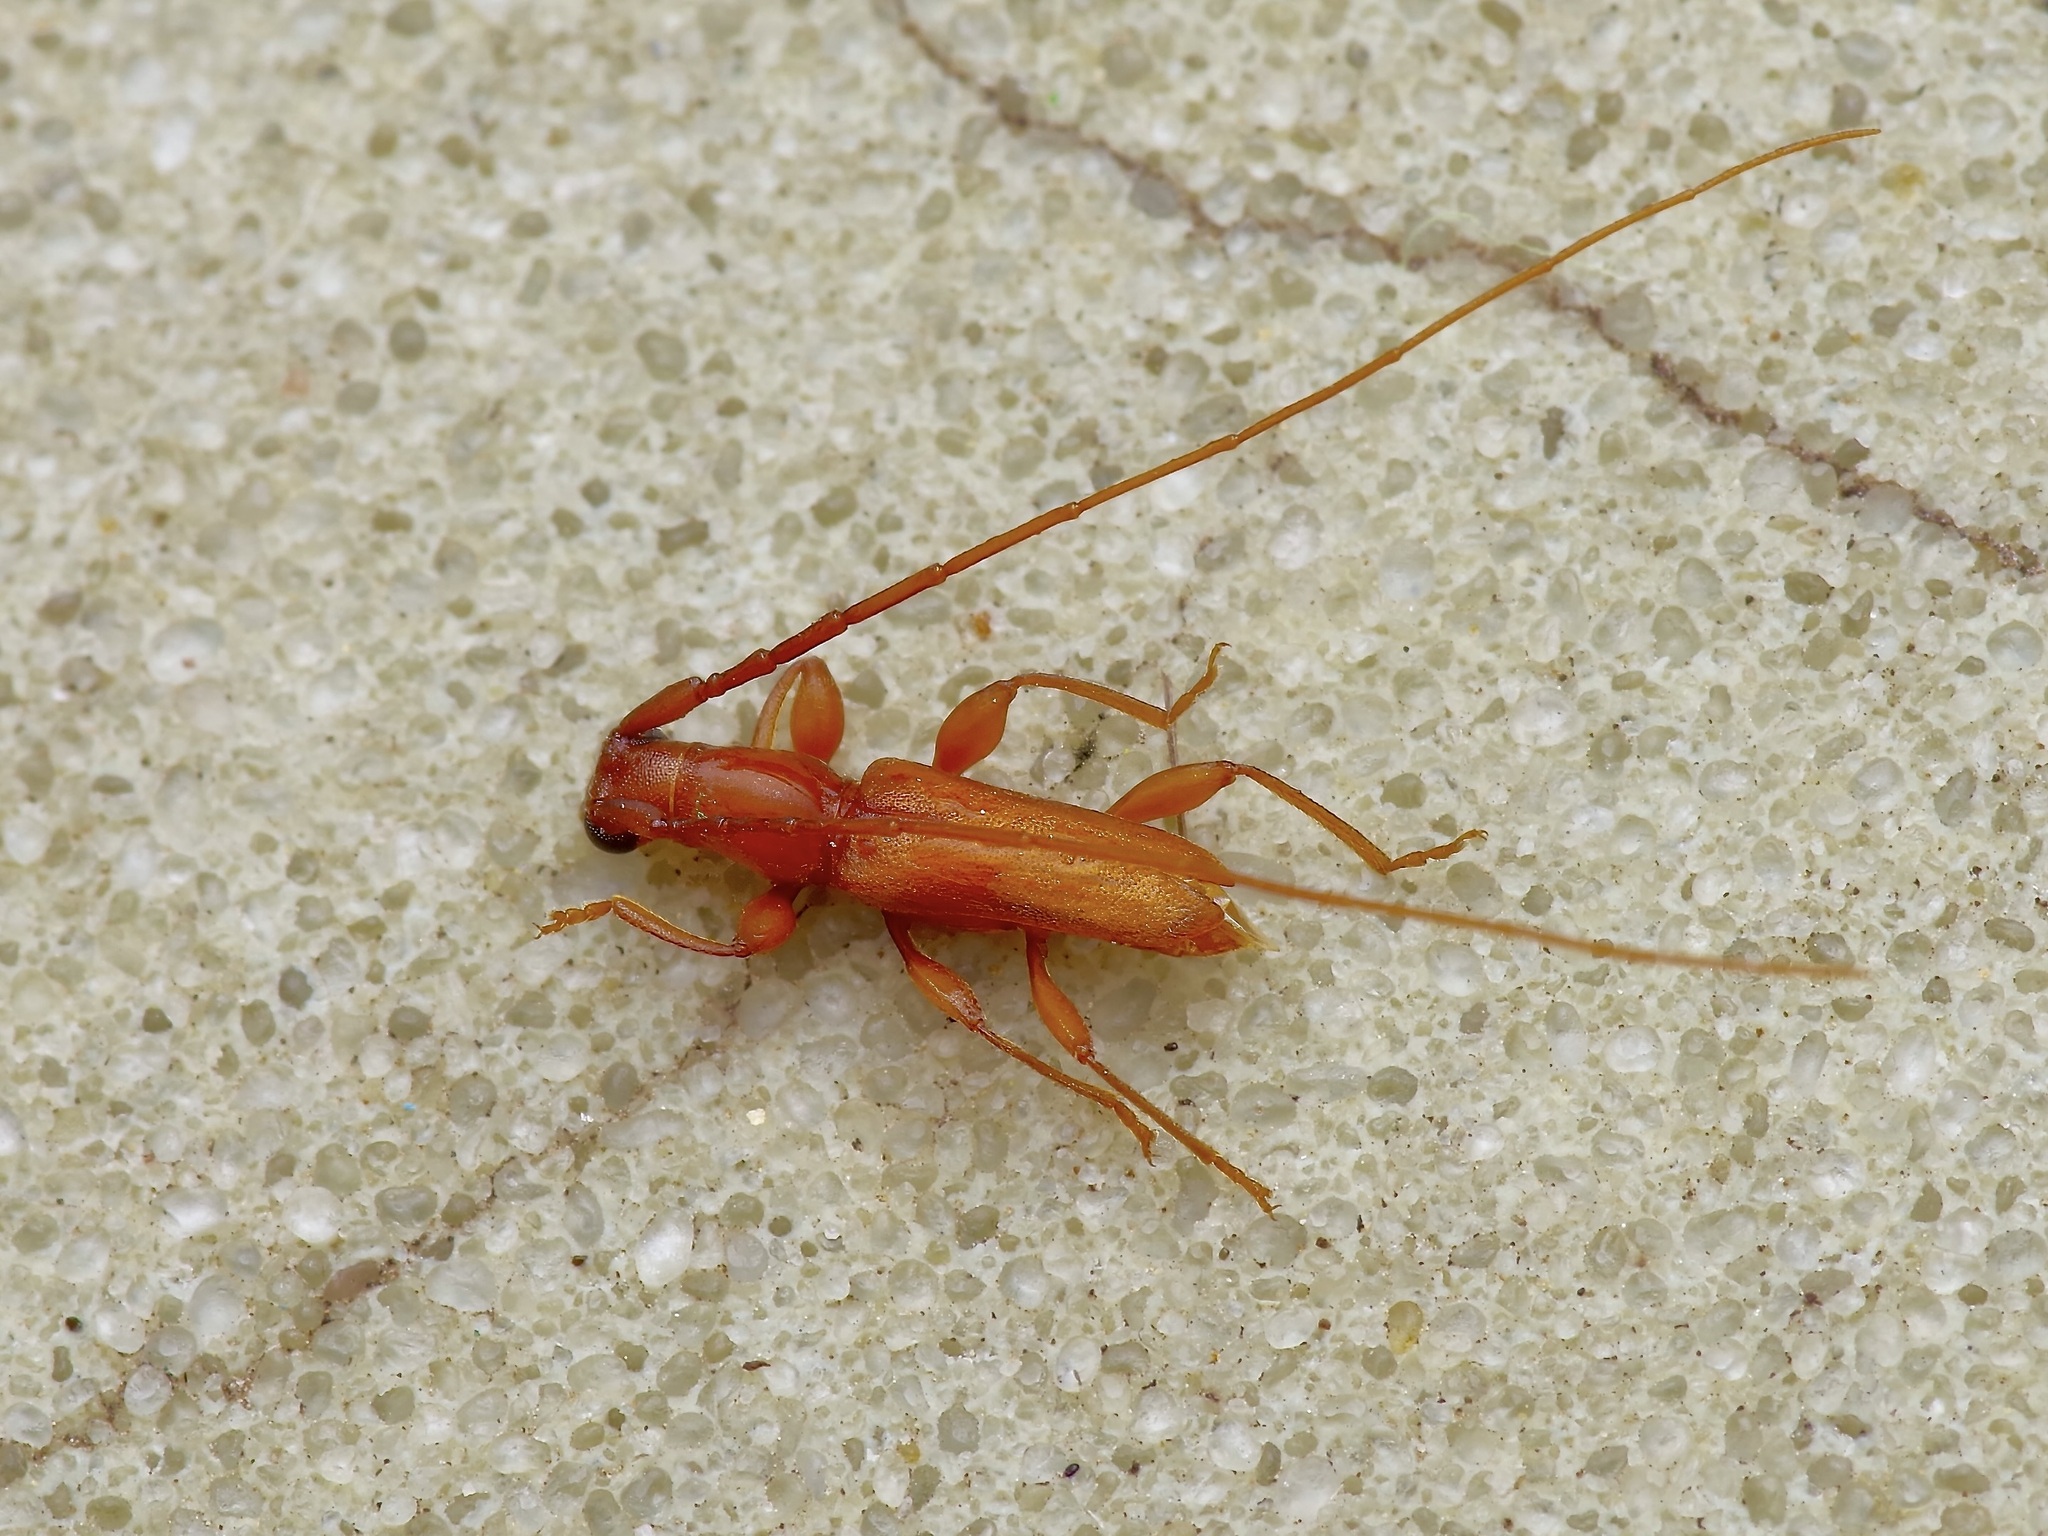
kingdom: Animalia
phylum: Arthropoda
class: Insecta
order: Coleoptera
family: Cerambycidae
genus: Hypexilis
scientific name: Hypexilis pallida
